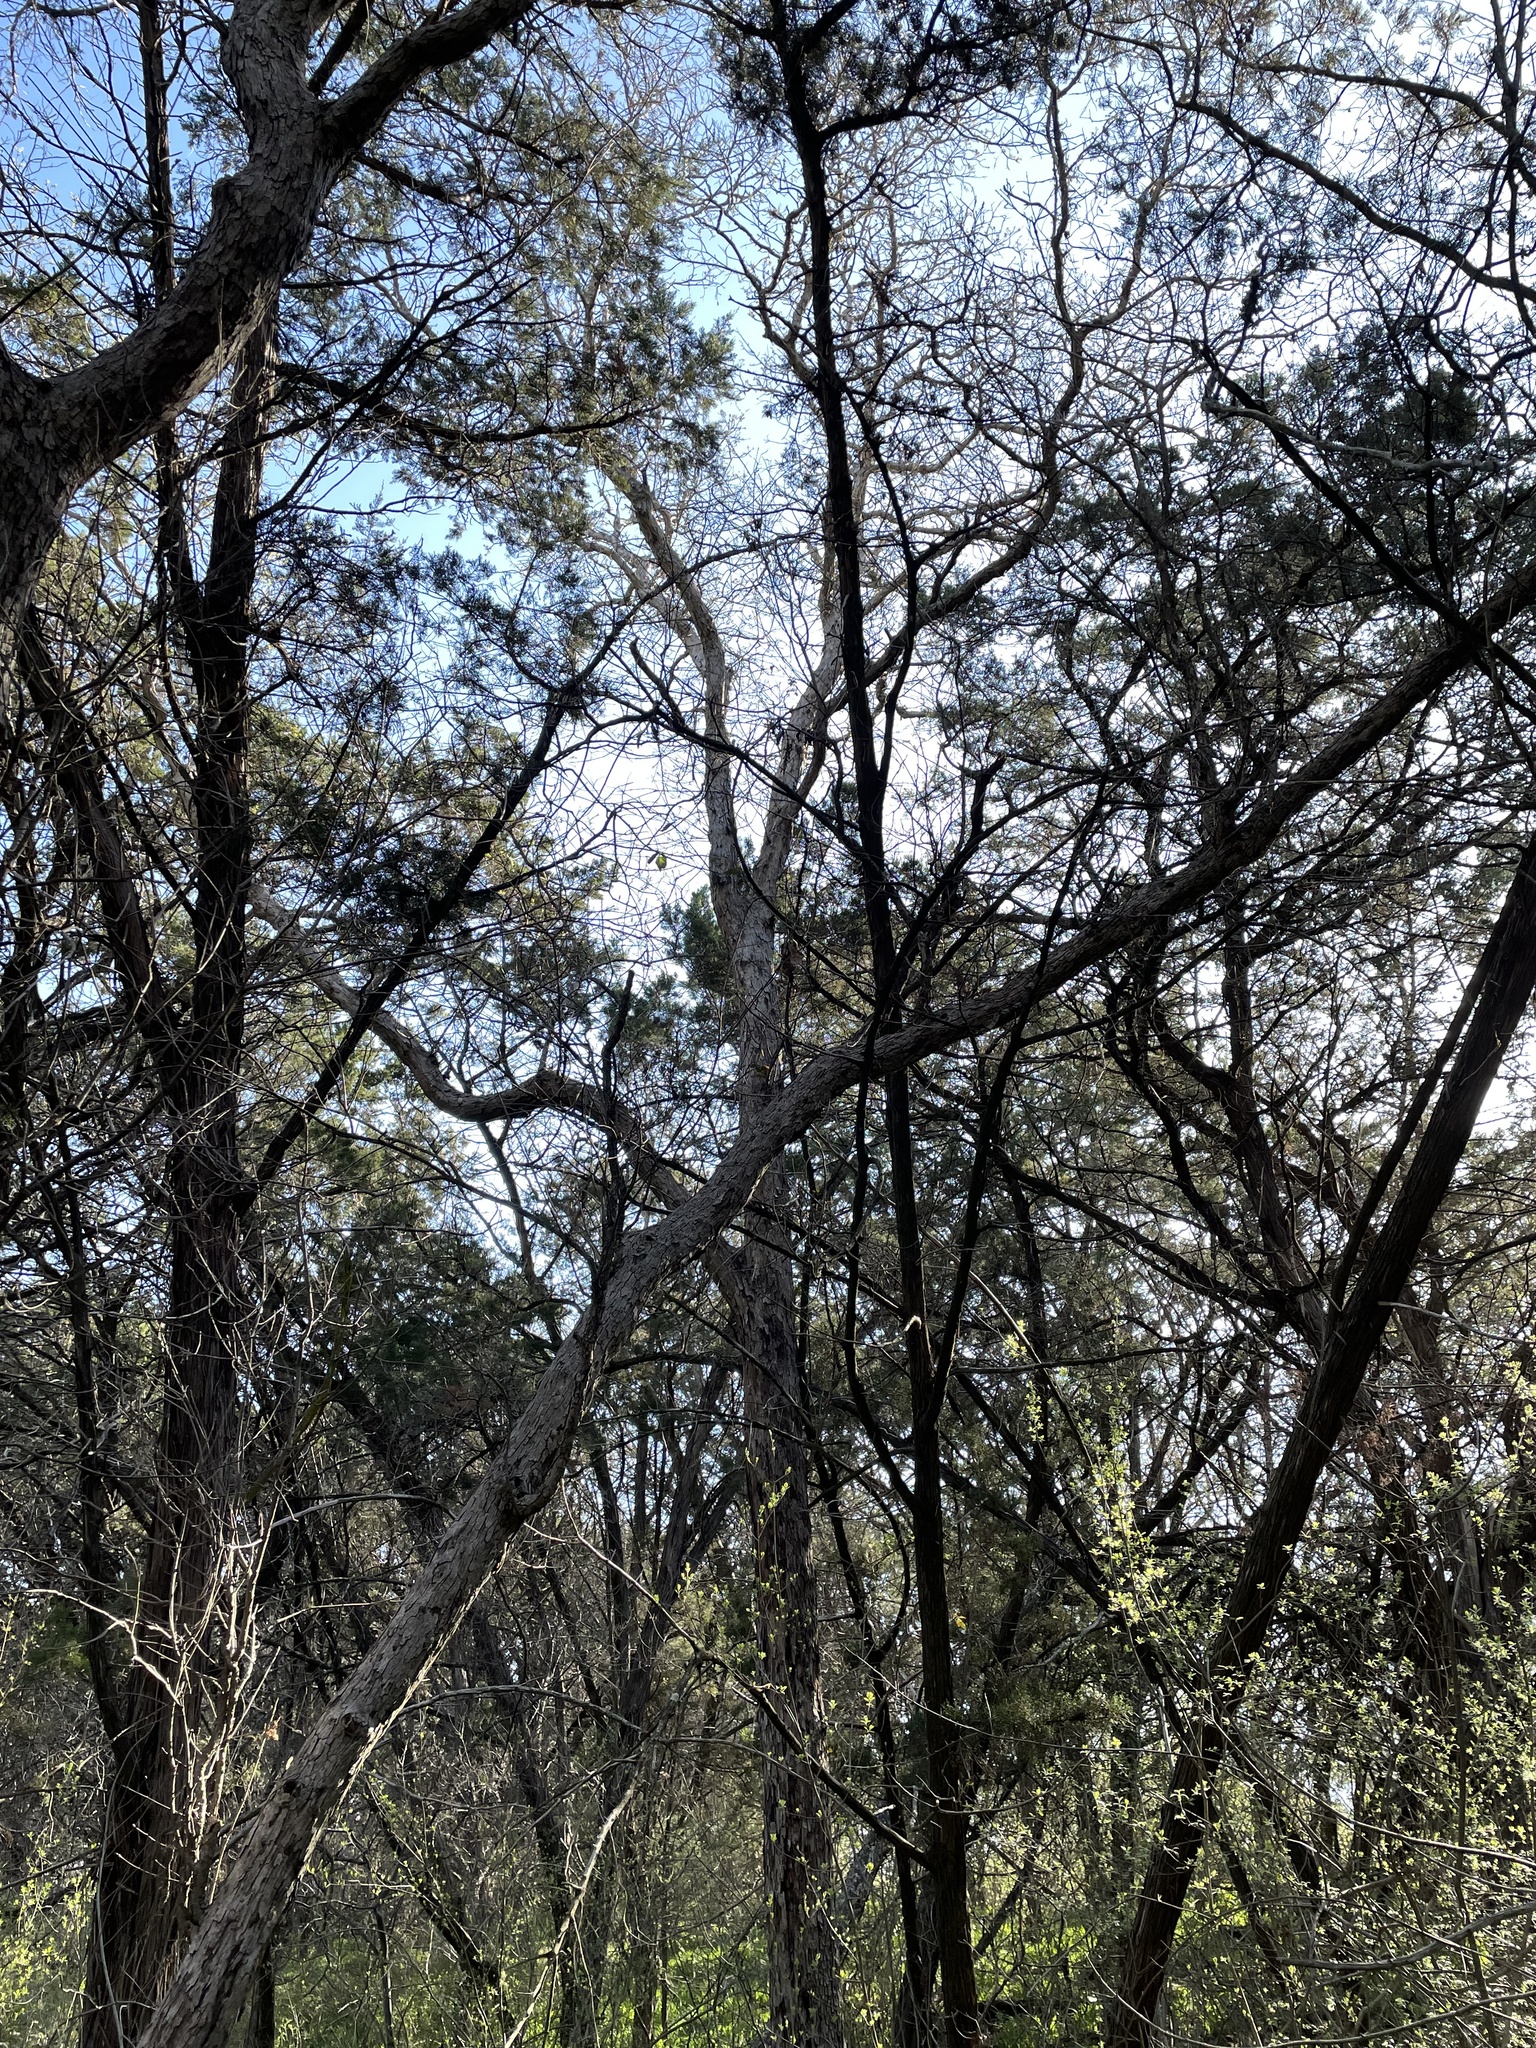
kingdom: Plantae
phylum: Tracheophyta
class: Magnoliopsida
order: Fagales
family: Fagaceae
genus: Quercus
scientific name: Quercus sinuata
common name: Durand oak
